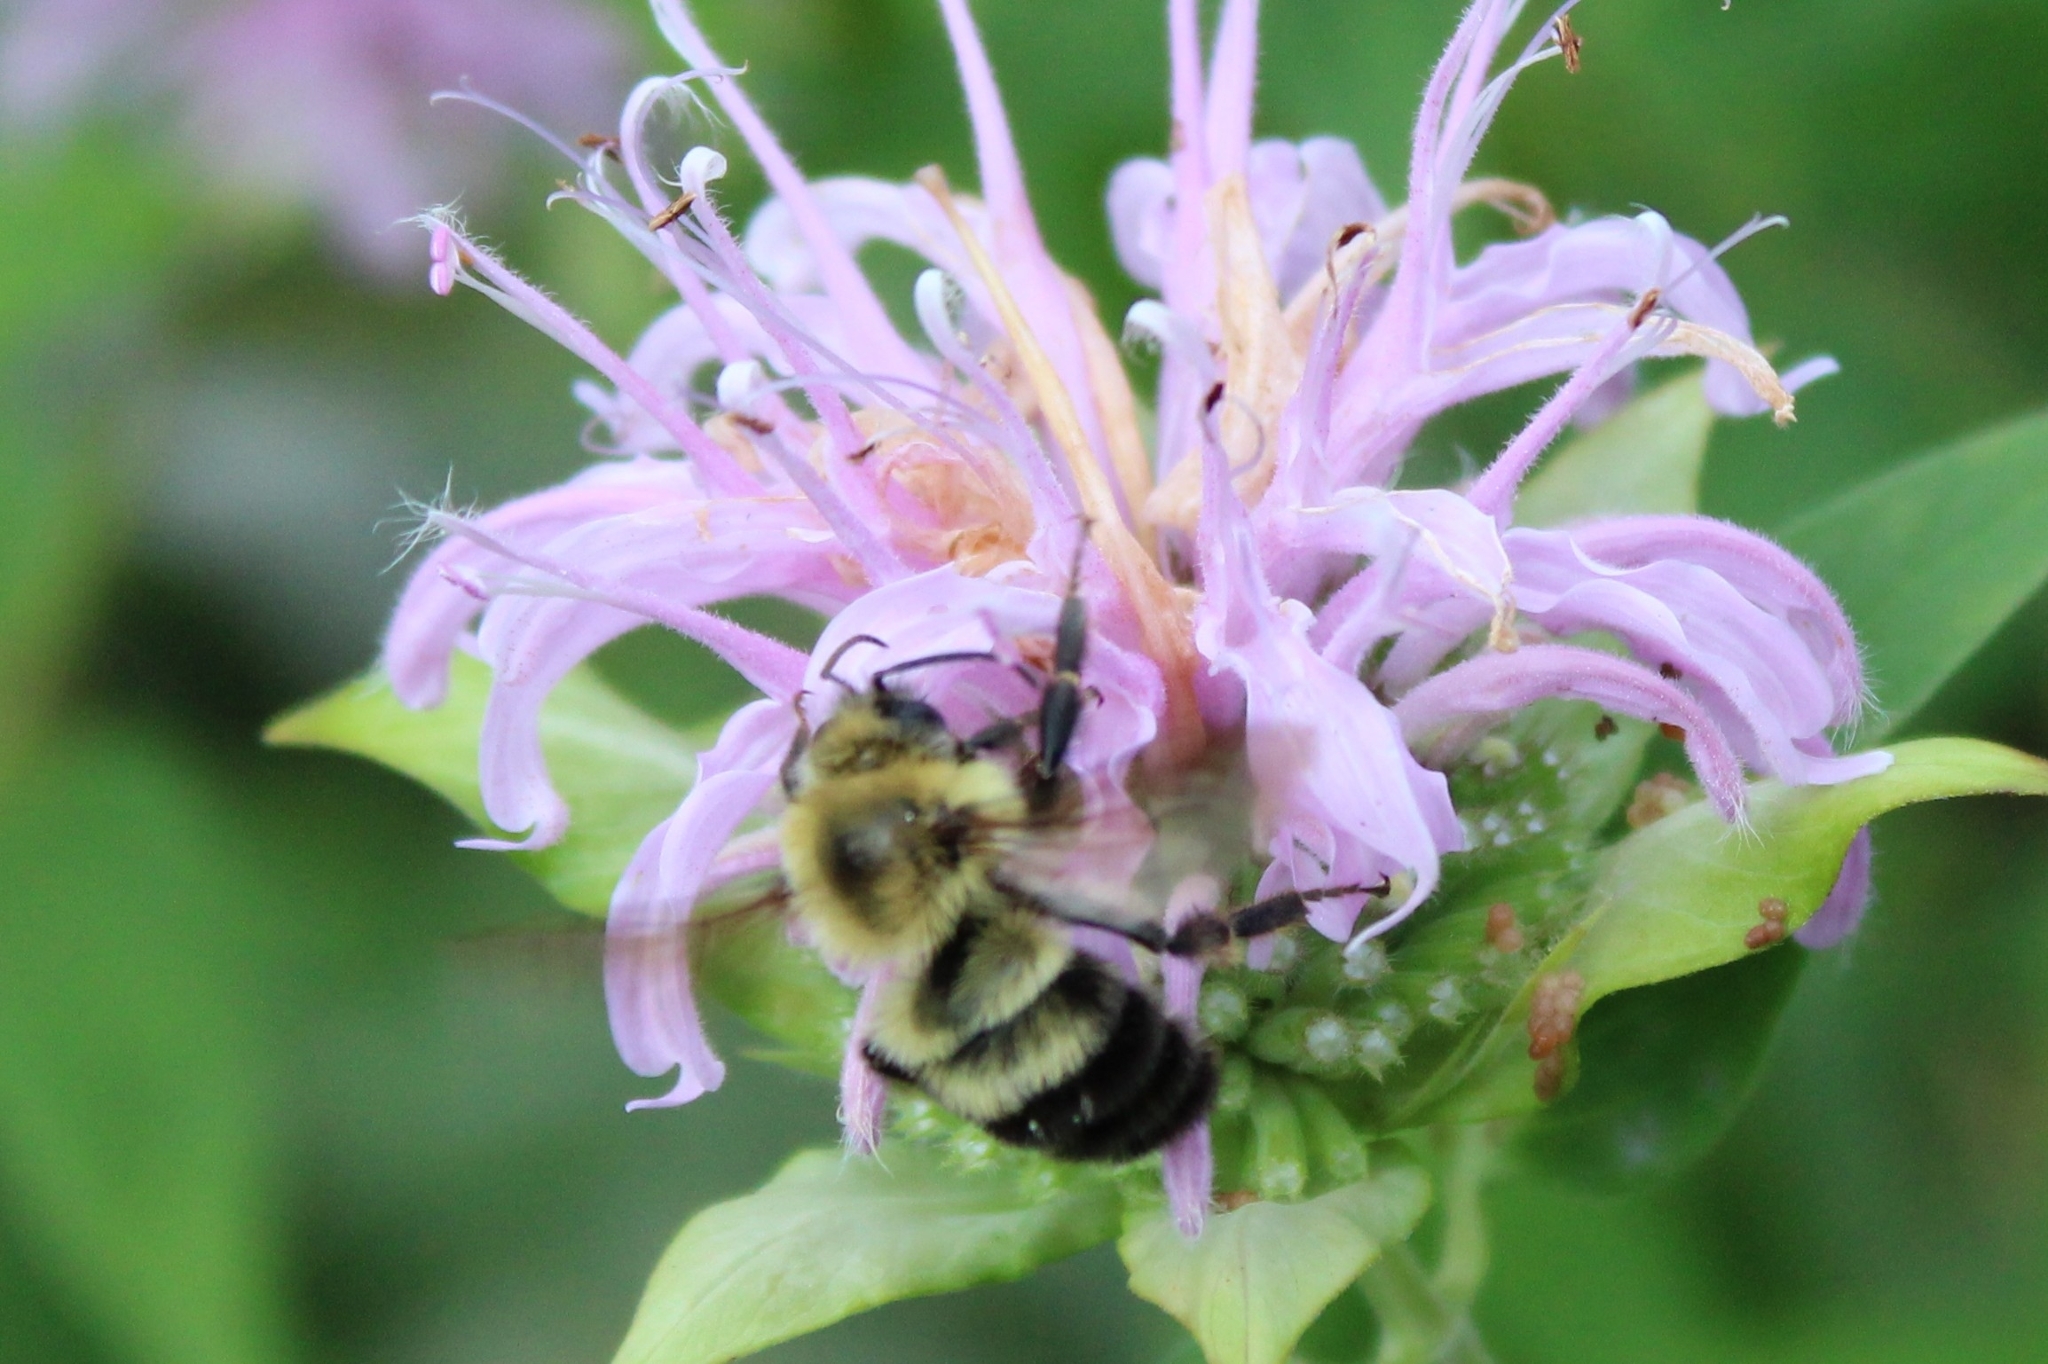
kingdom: Animalia
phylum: Arthropoda
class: Insecta
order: Hymenoptera
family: Apidae
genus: Bombus
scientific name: Bombus bimaculatus
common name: Two-spotted bumble bee
